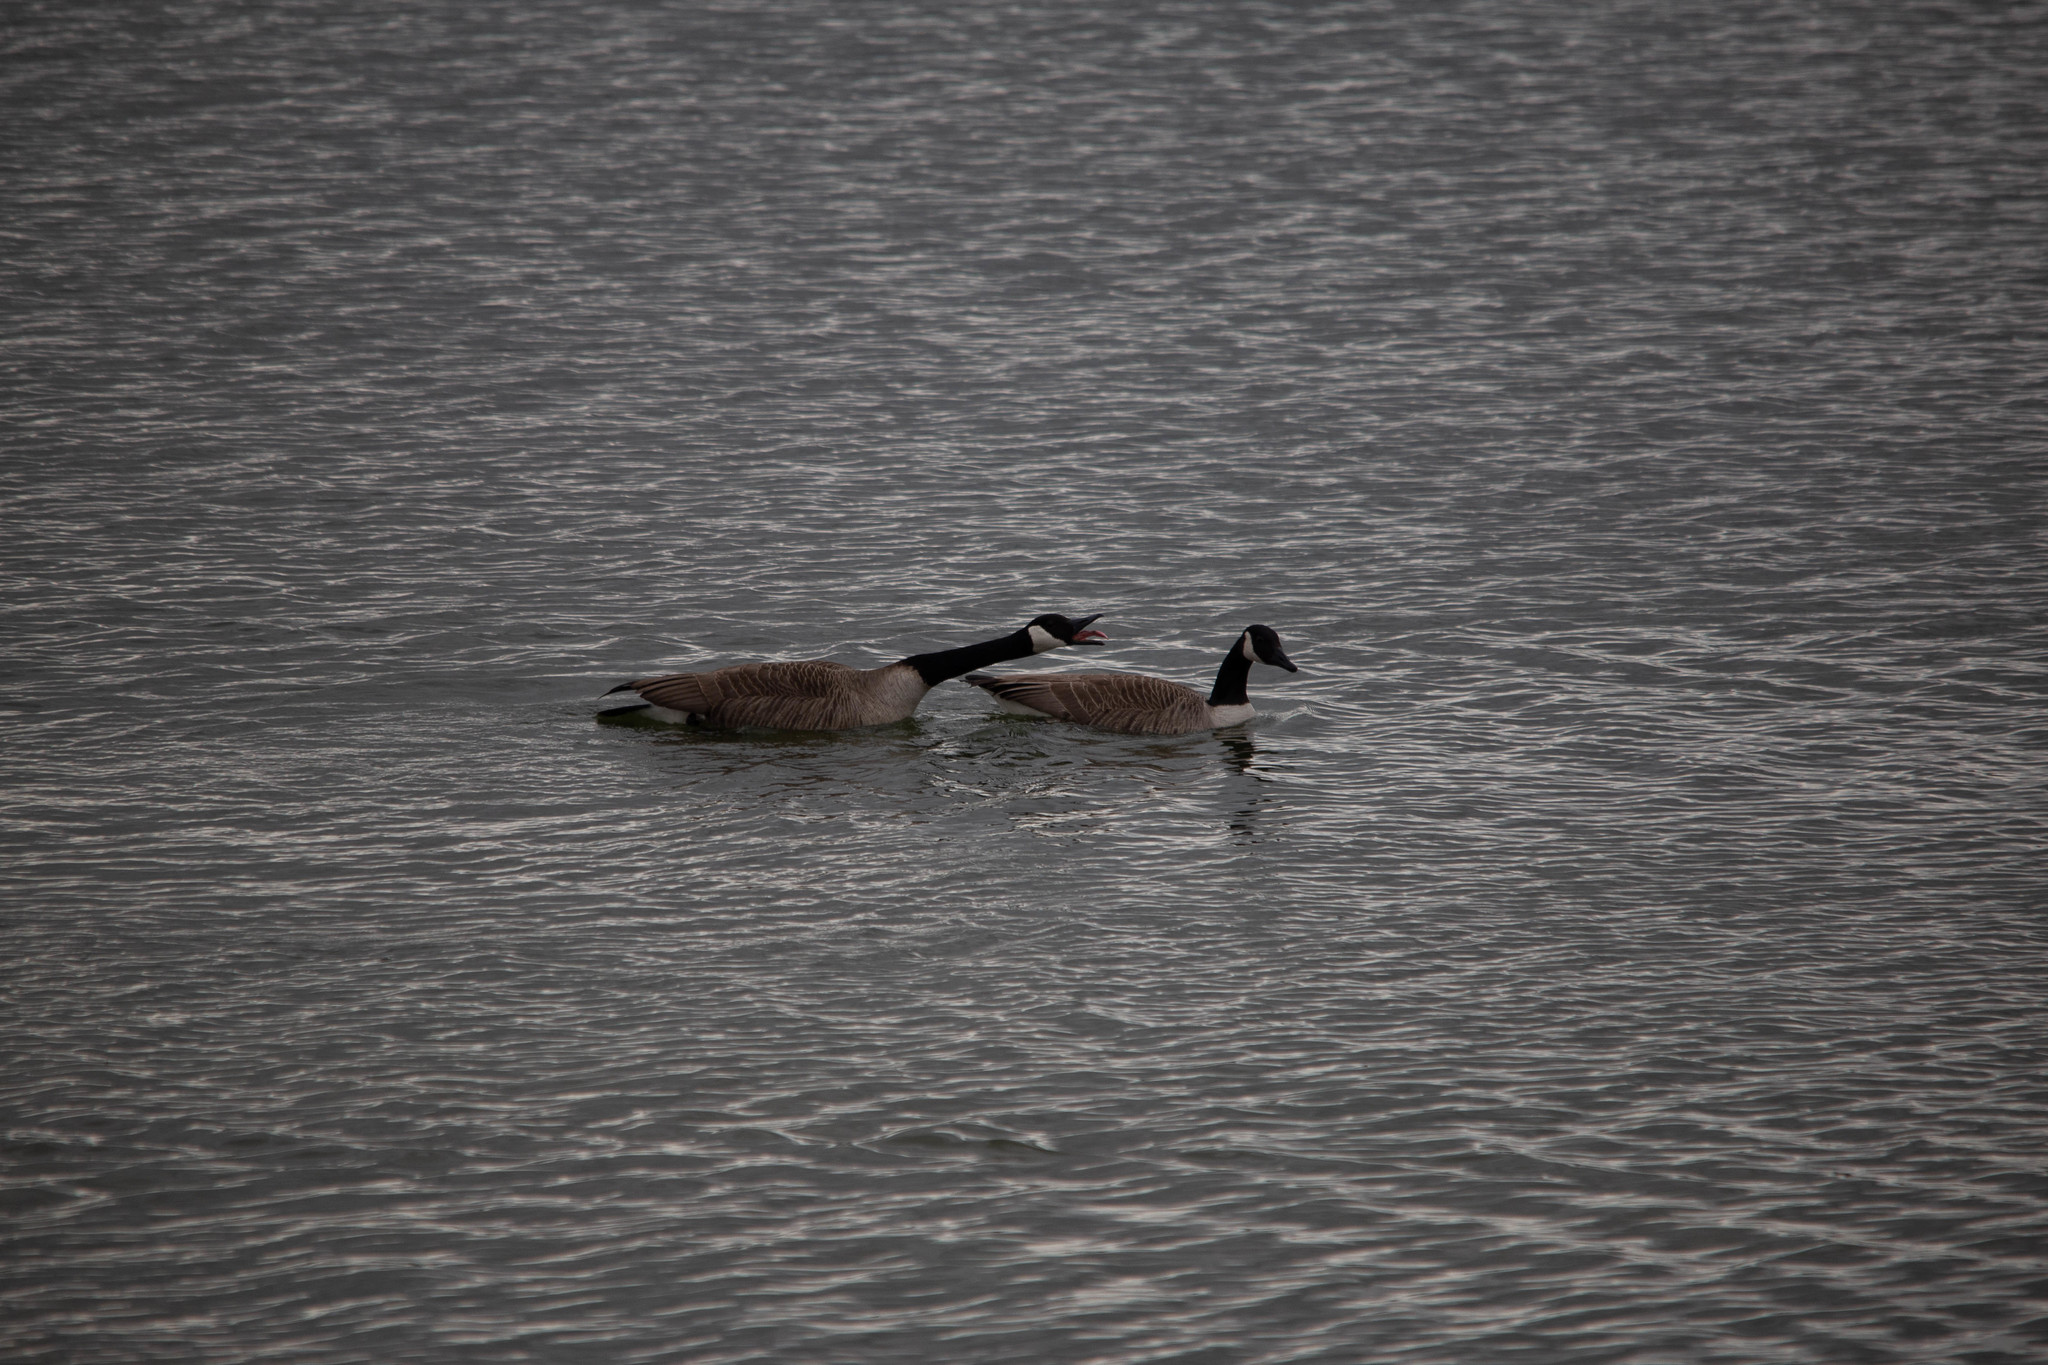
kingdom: Animalia
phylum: Chordata
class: Aves
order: Anseriformes
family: Anatidae
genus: Branta
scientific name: Branta canadensis
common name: Canada goose
